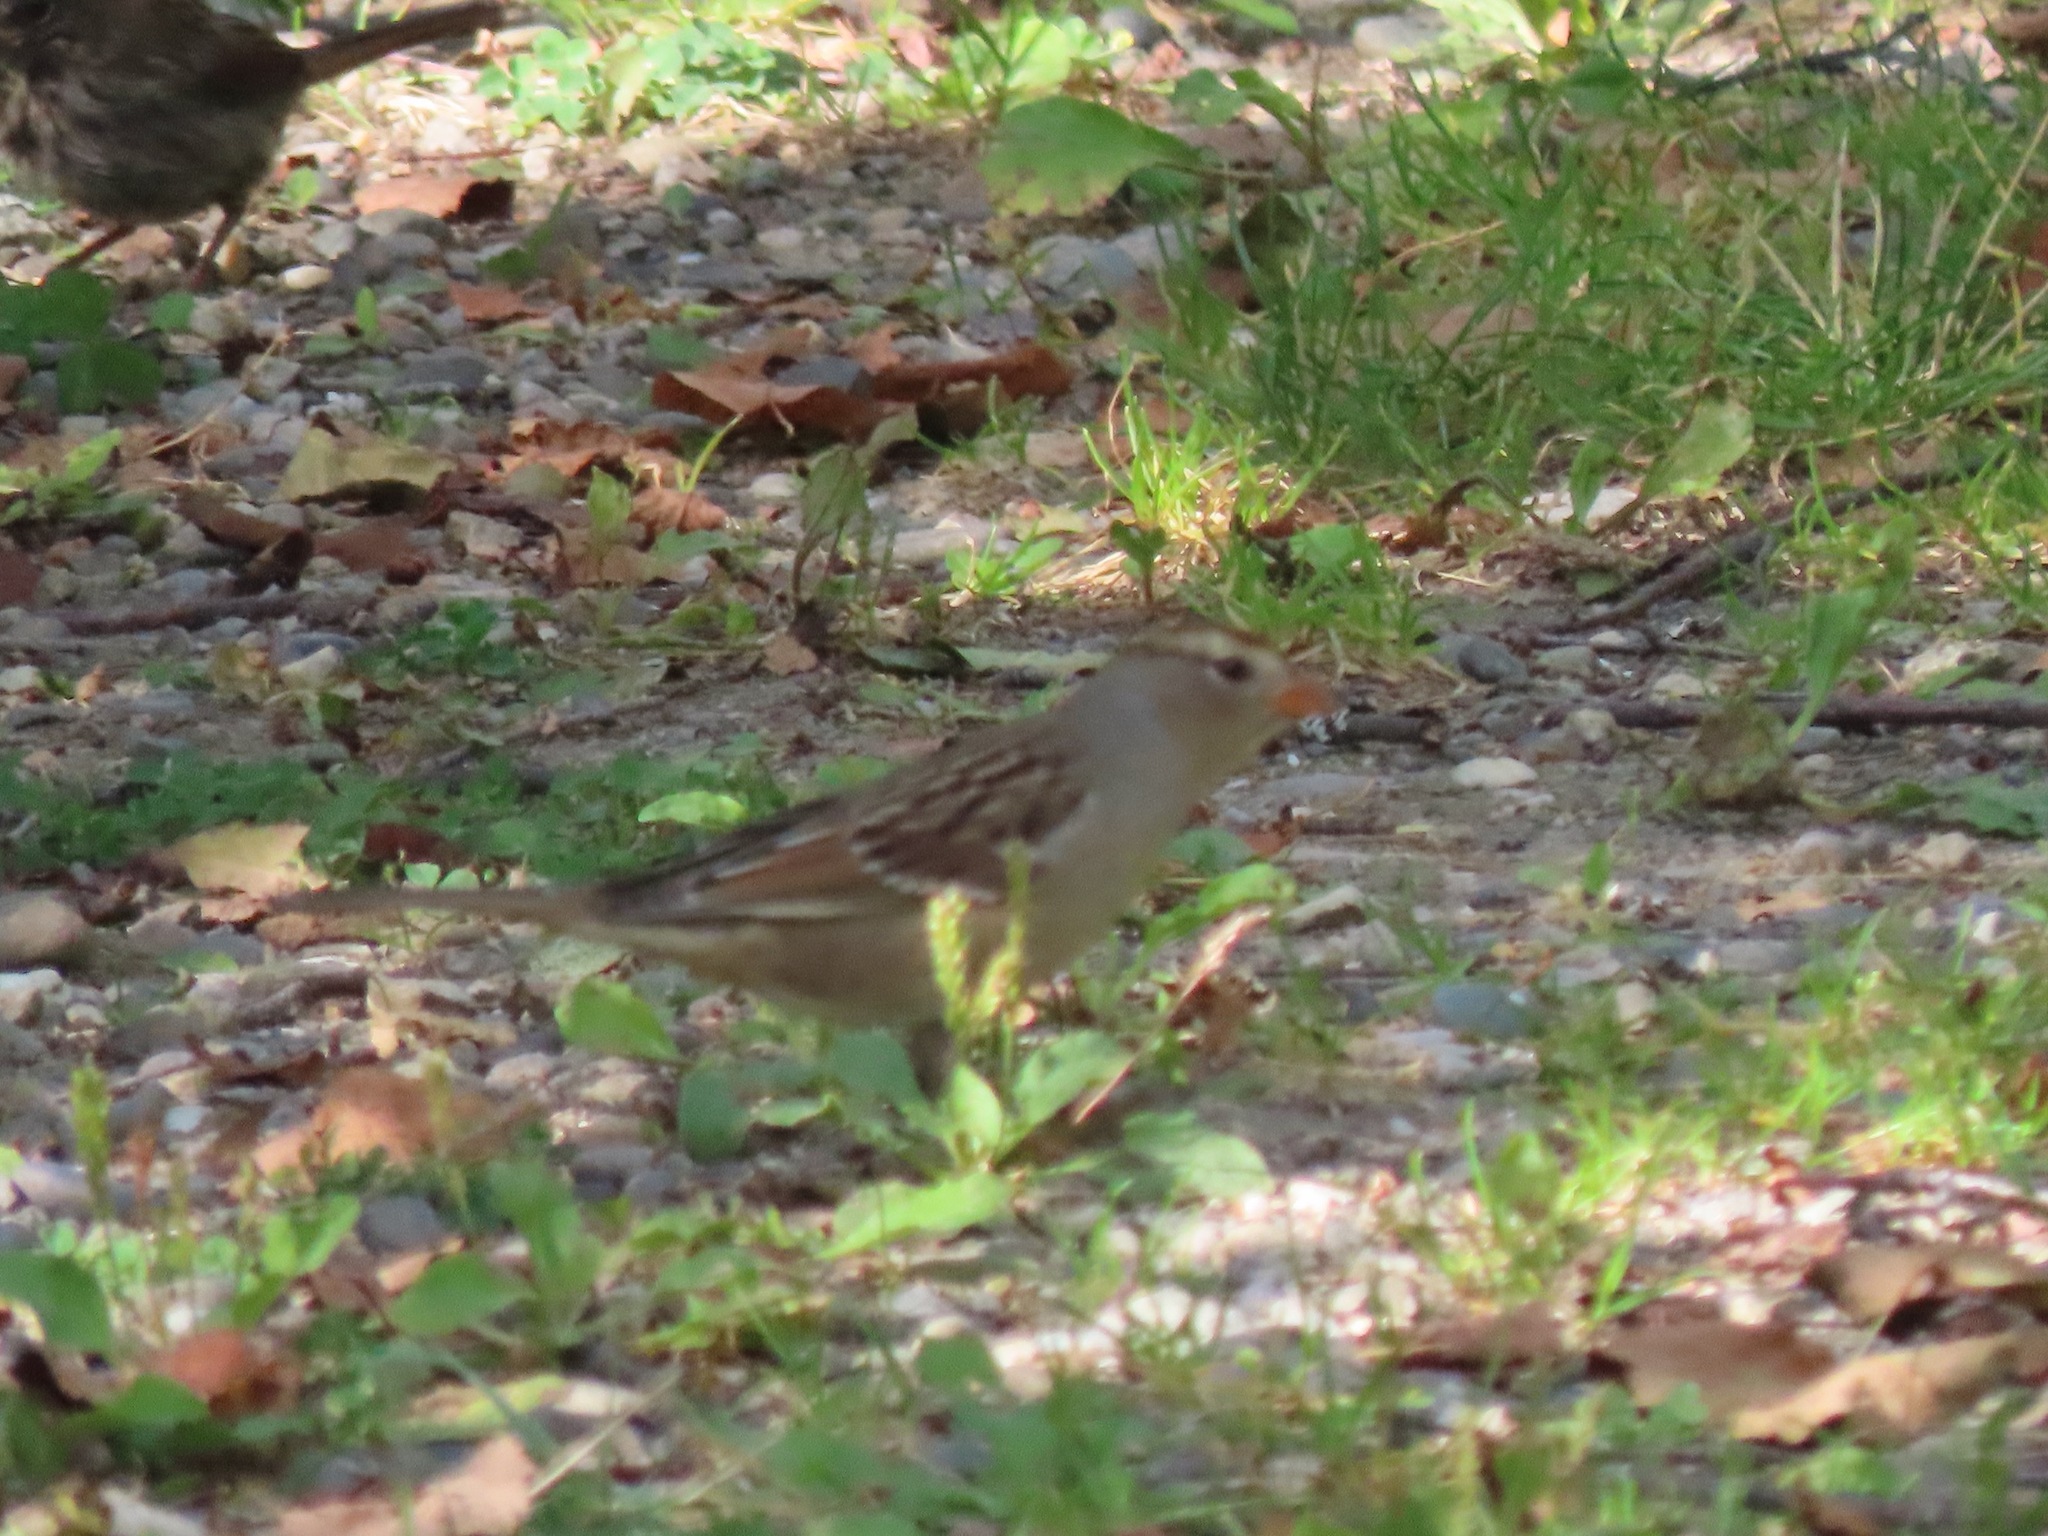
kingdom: Animalia
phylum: Chordata
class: Aves
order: Passeriformes
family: Passerellidae
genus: Zonotrichia
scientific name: Zonotrichia leucophrys
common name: White-crowned sparrow
